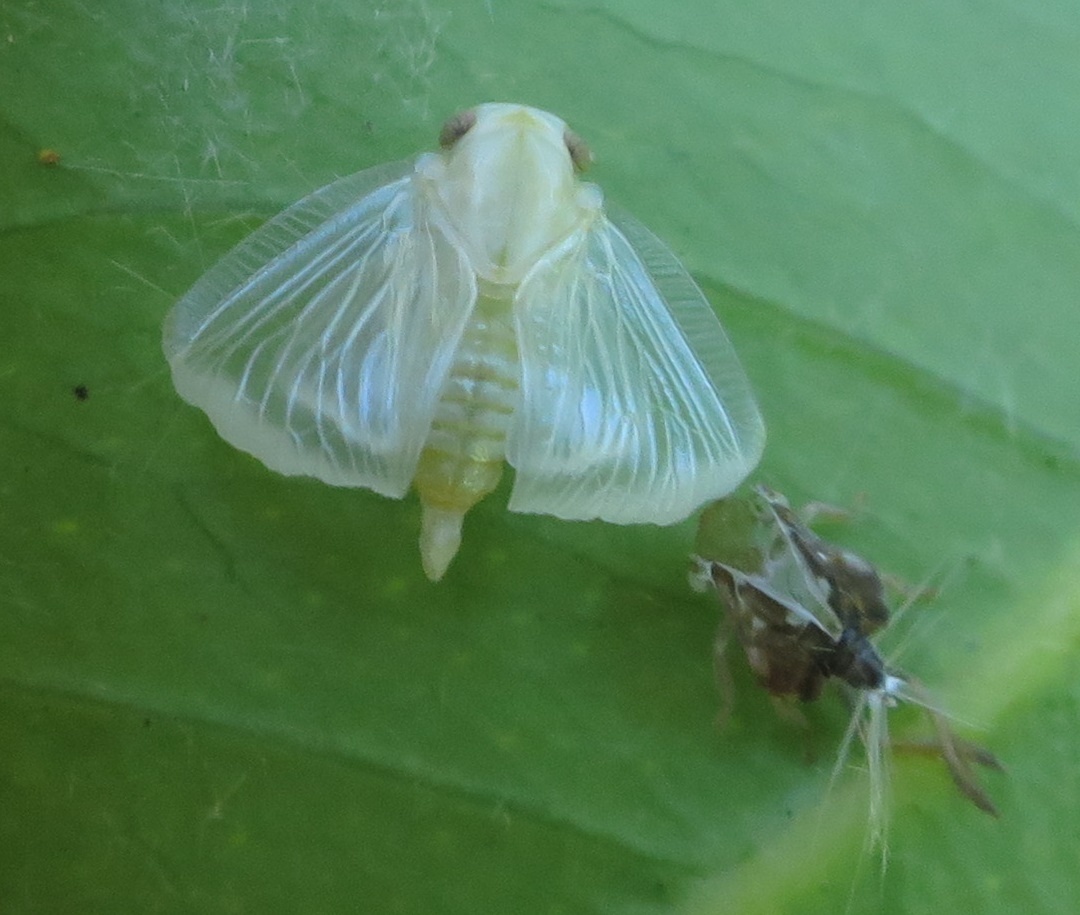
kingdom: Animalia
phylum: Arthropoda
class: Insecta
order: Hemiptera
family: Ricaniidae
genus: Scolypopa
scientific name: Scolypopa australis
